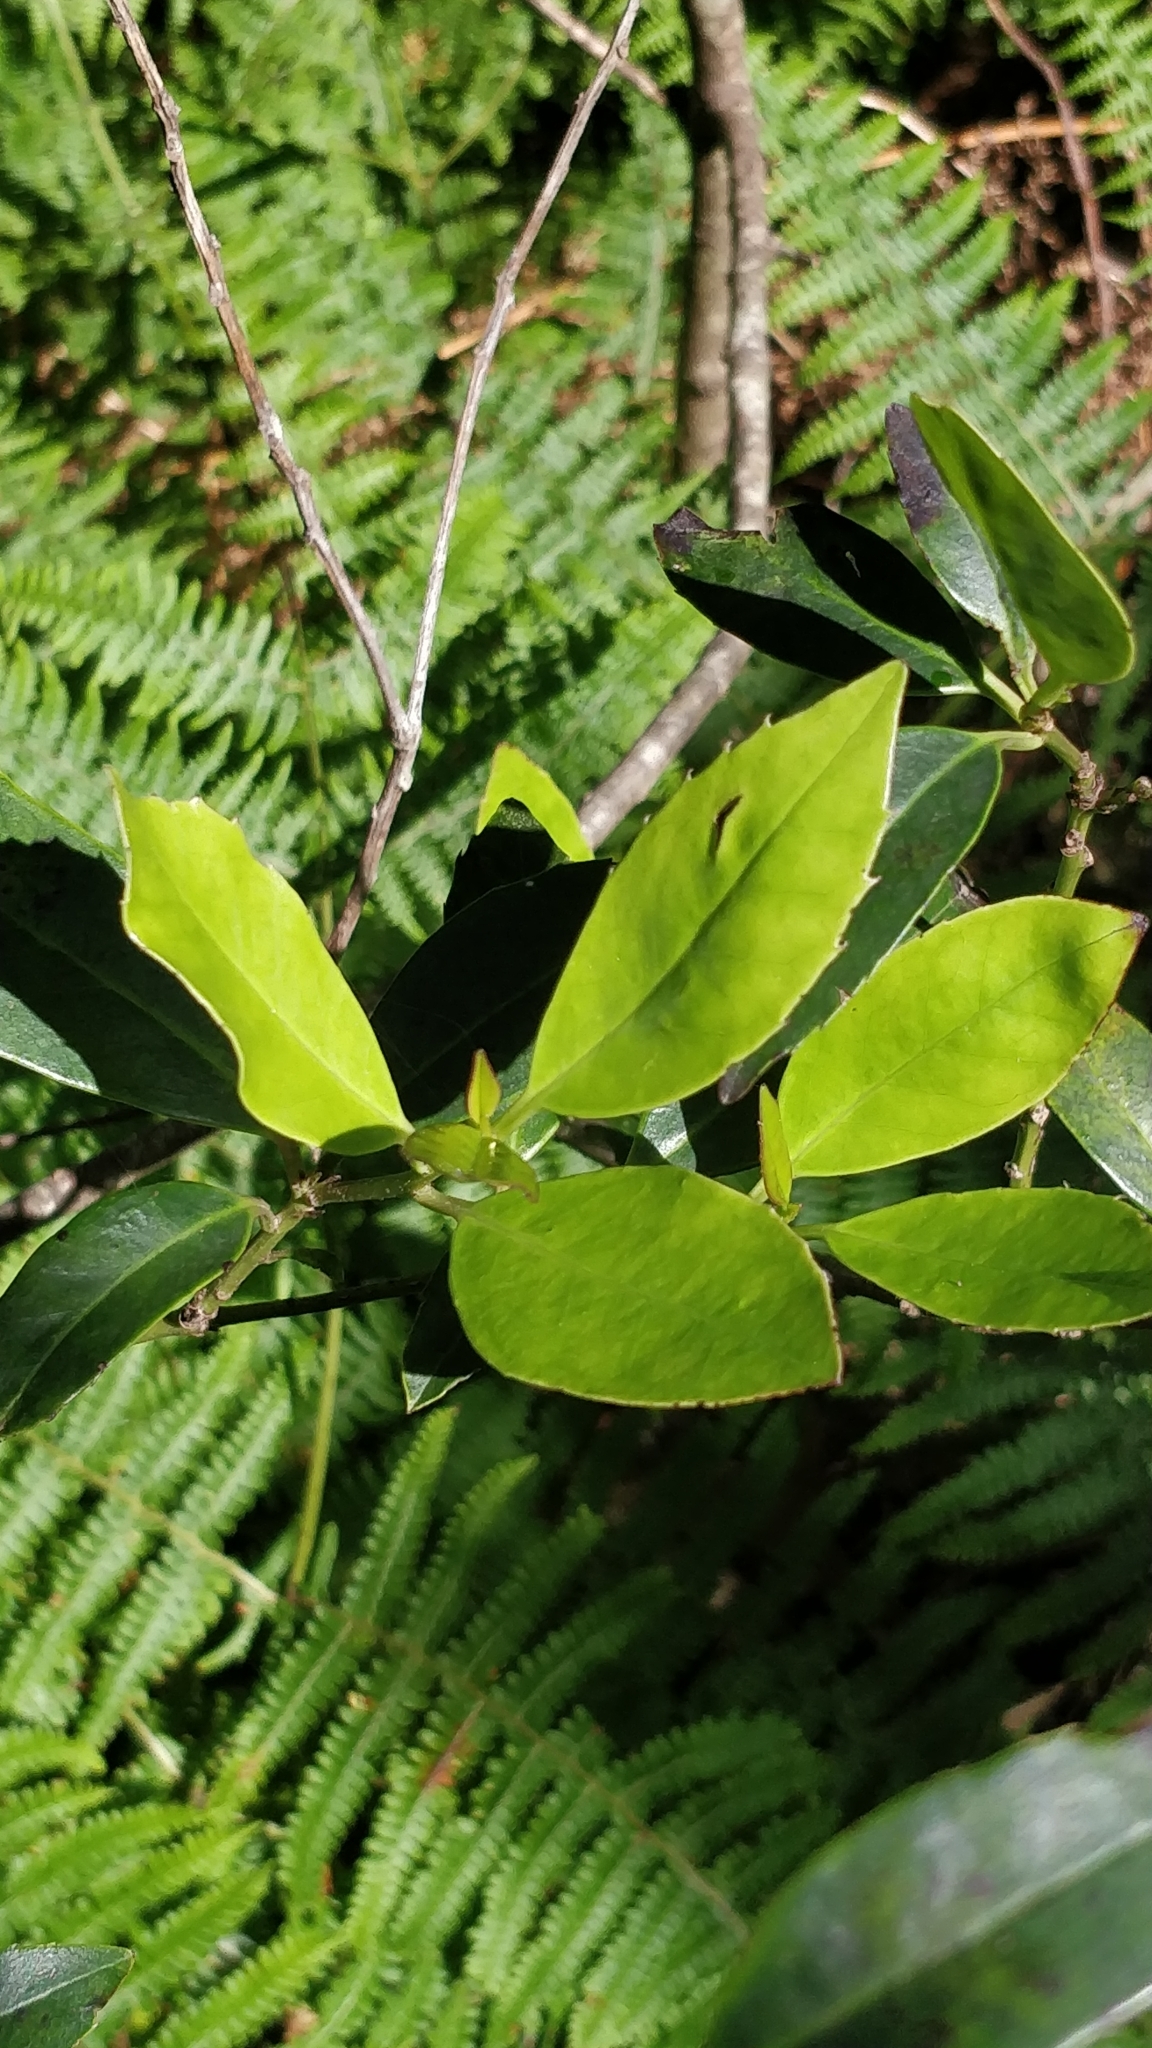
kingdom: Plantae
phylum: Tracheophyta
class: Magnoliopsida
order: Aquifoliales
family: Aquifoliaceae
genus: Ilex
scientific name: Ilex canariensis
